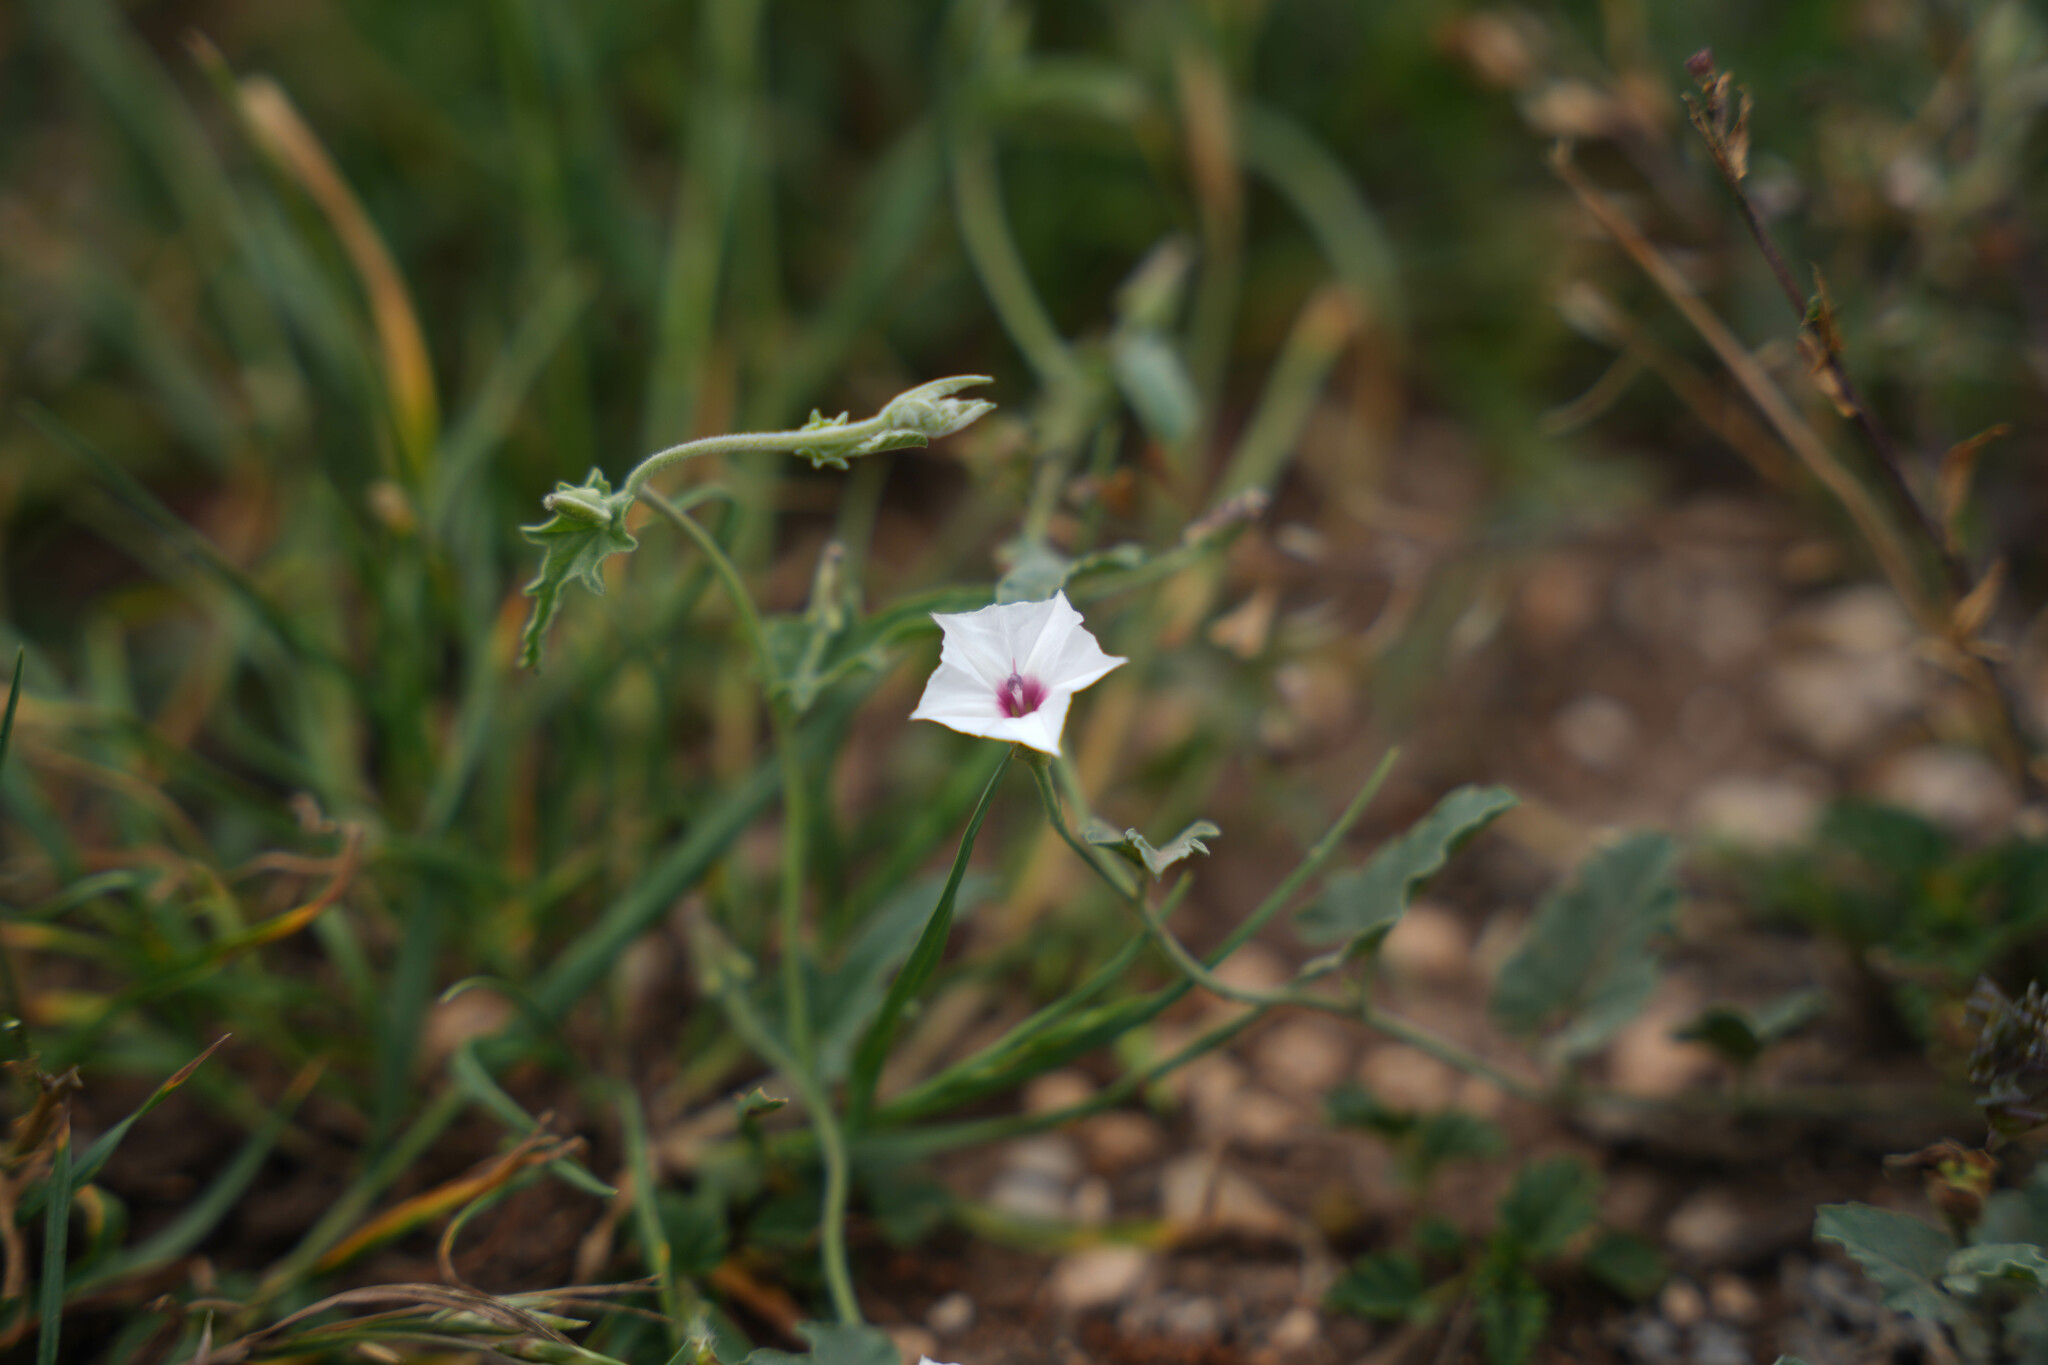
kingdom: Plantae
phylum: Tracheophyta
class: Magnoliopsida
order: Solanales
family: Convolvulaceae
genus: Convolvulus
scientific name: Convolvulus equitans
